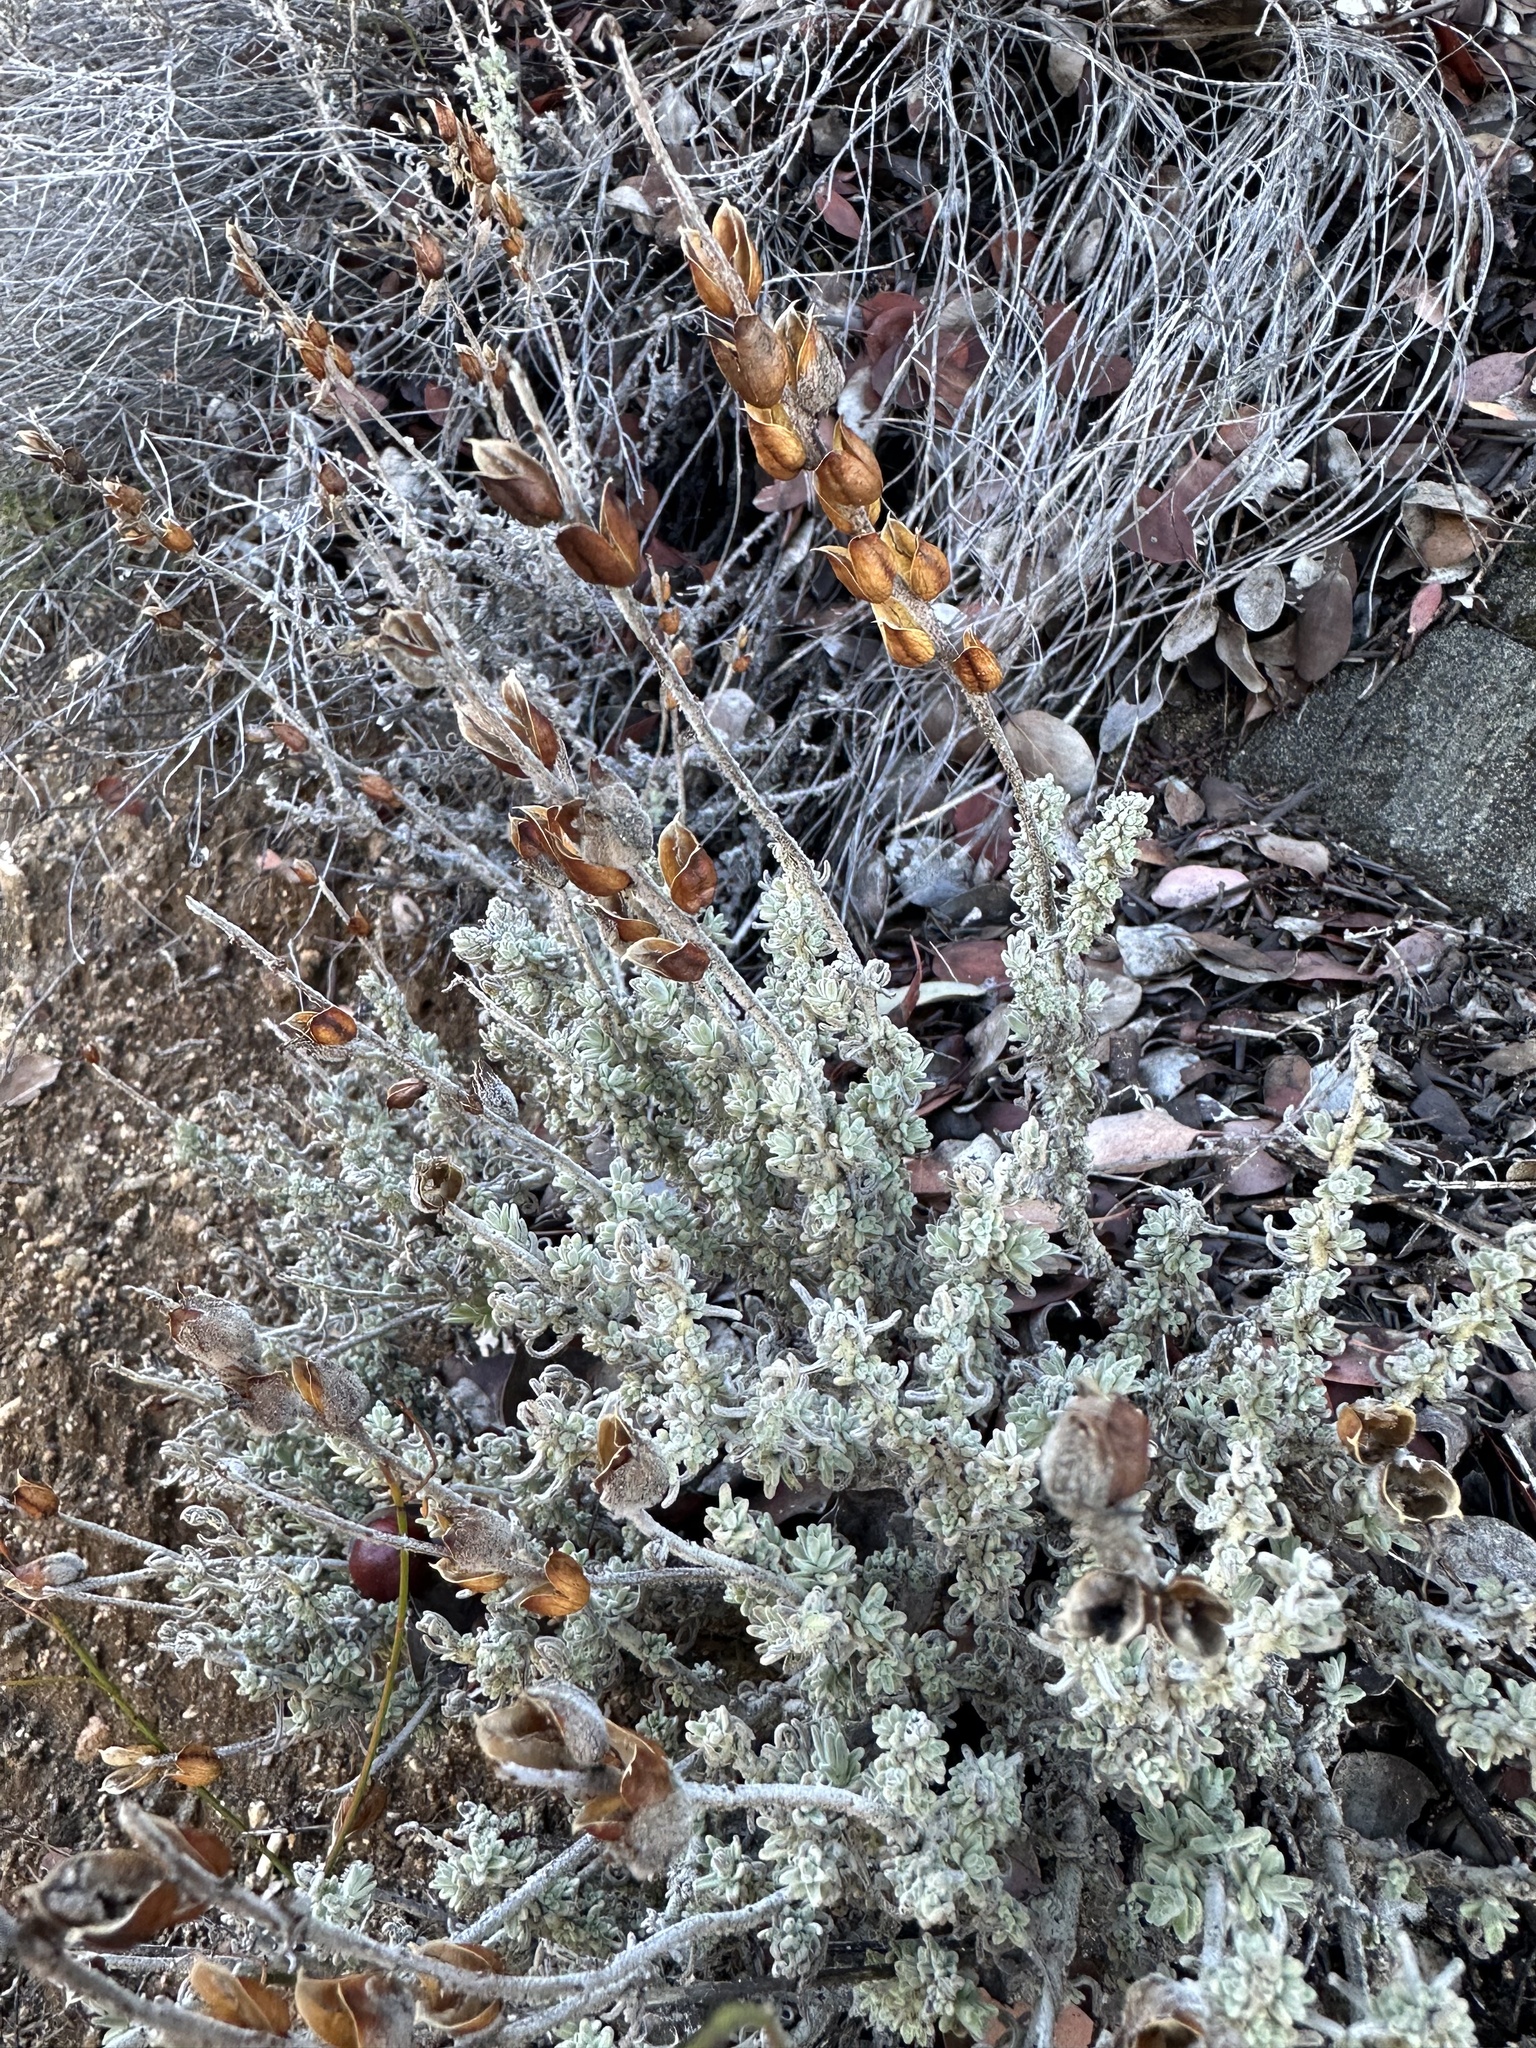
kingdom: Plantae
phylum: Tracheophyta
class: Magnoliopsida
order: Lamiales
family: Orobanchaceae
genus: Castilleja
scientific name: Castilleja foliolosa
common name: Woolly indian paintbrush
